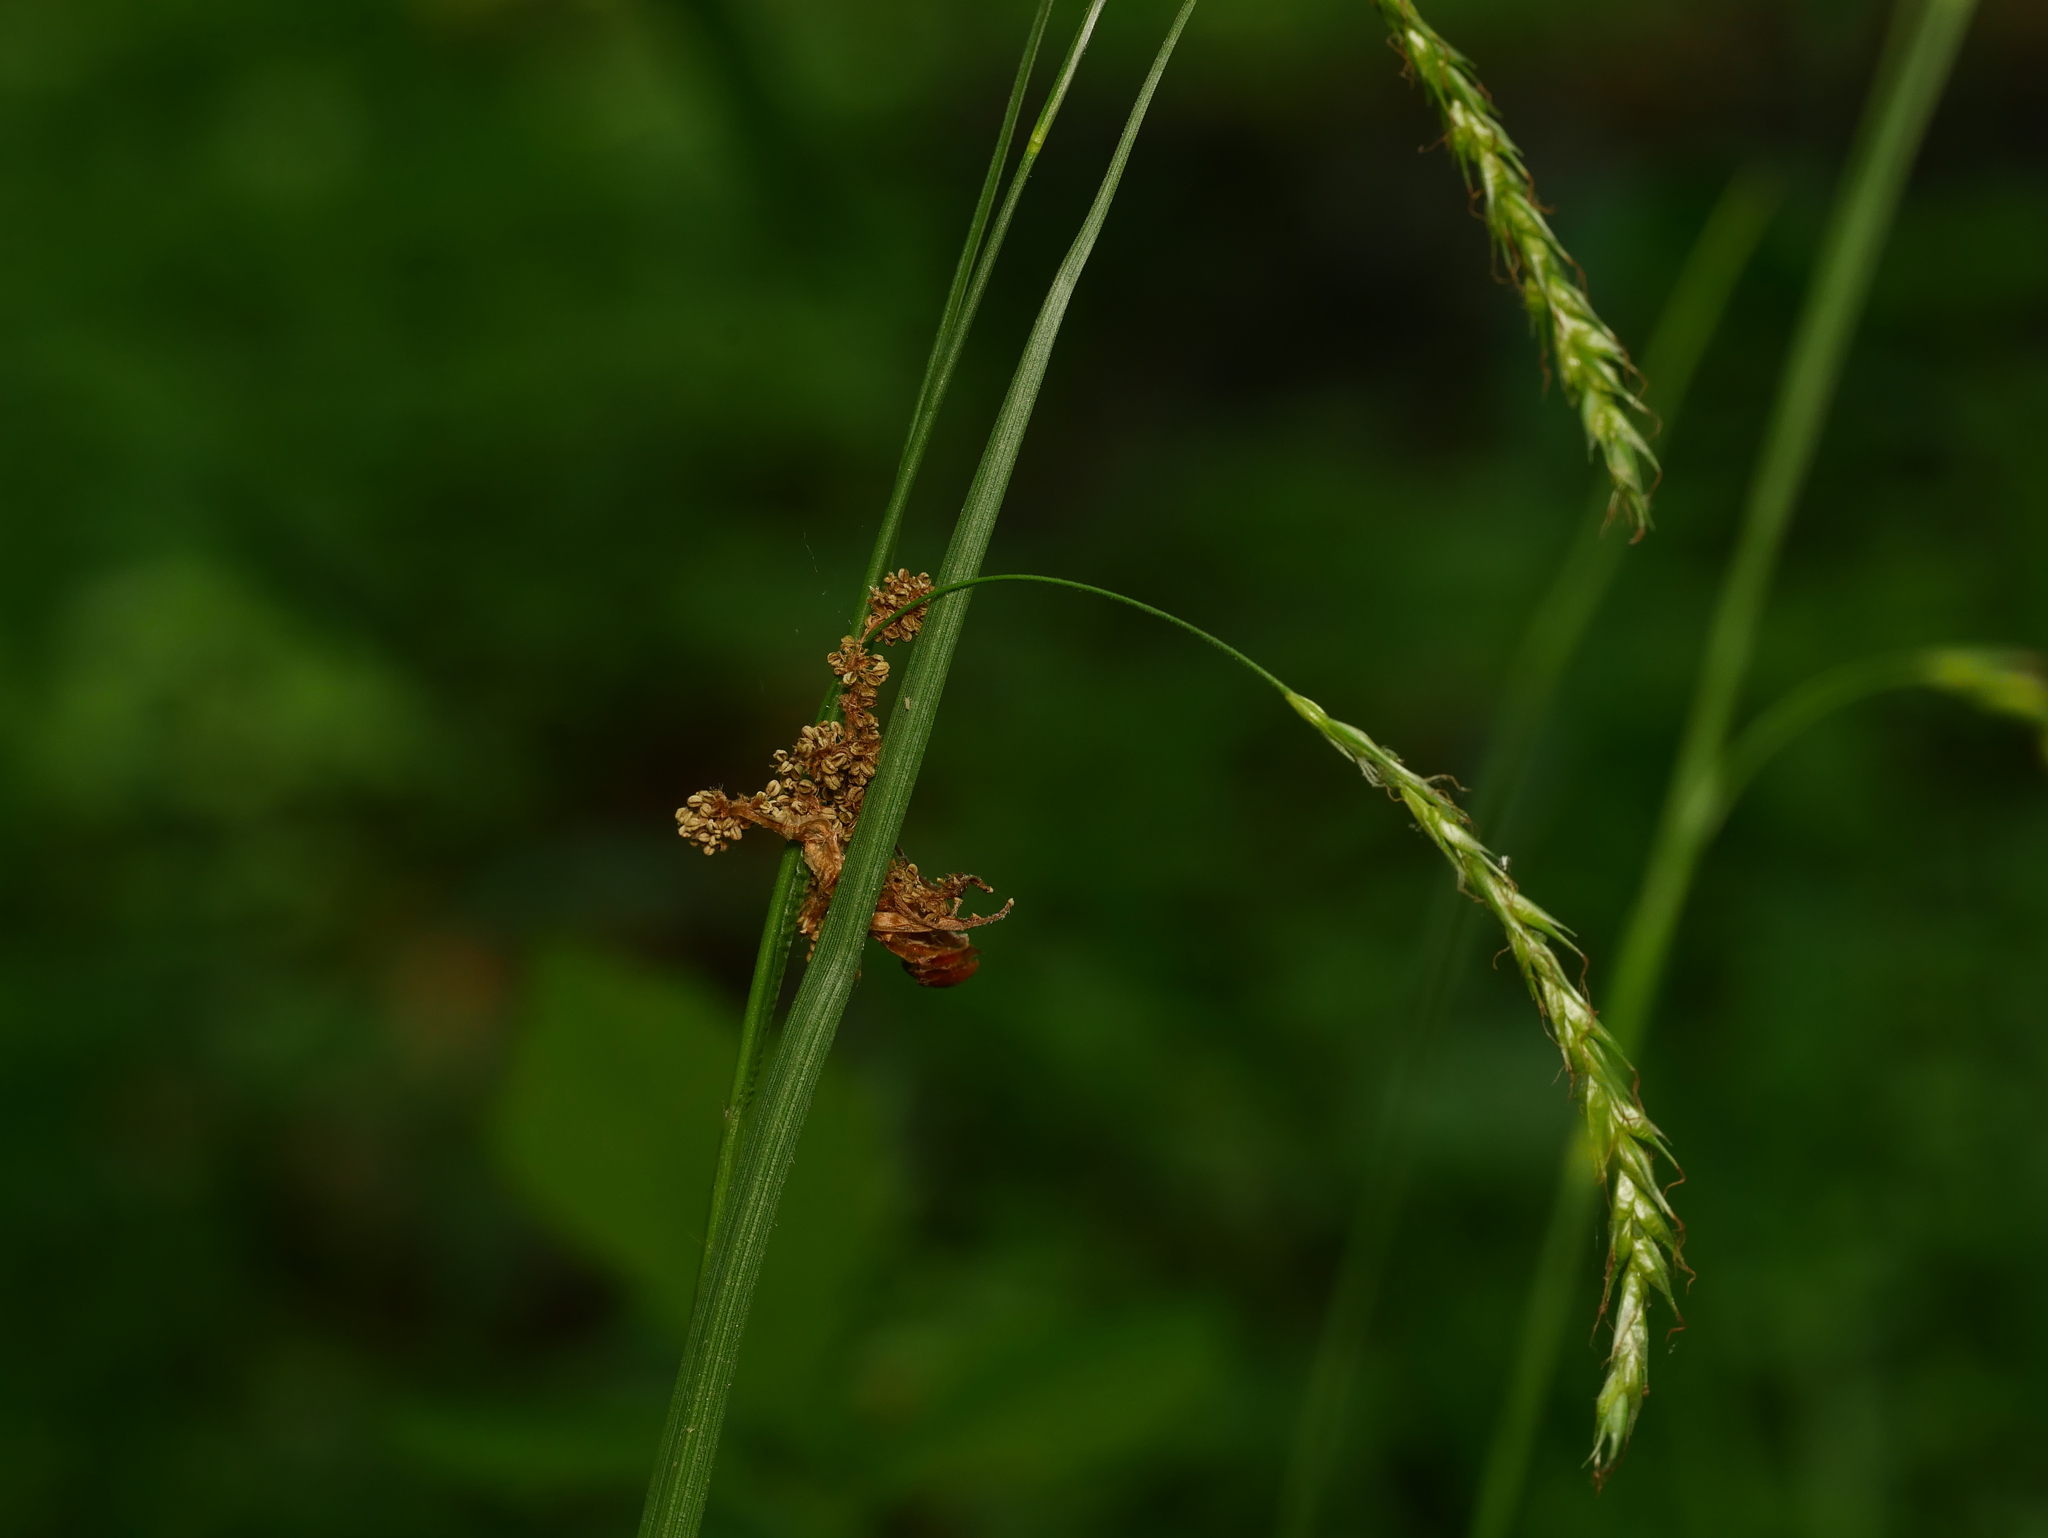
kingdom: Plantae
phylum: Tracheophyta
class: Liliopsida
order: Poales
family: Cyperaceae
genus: Carex
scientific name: Carex sylvatica
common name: Wood-sedge
